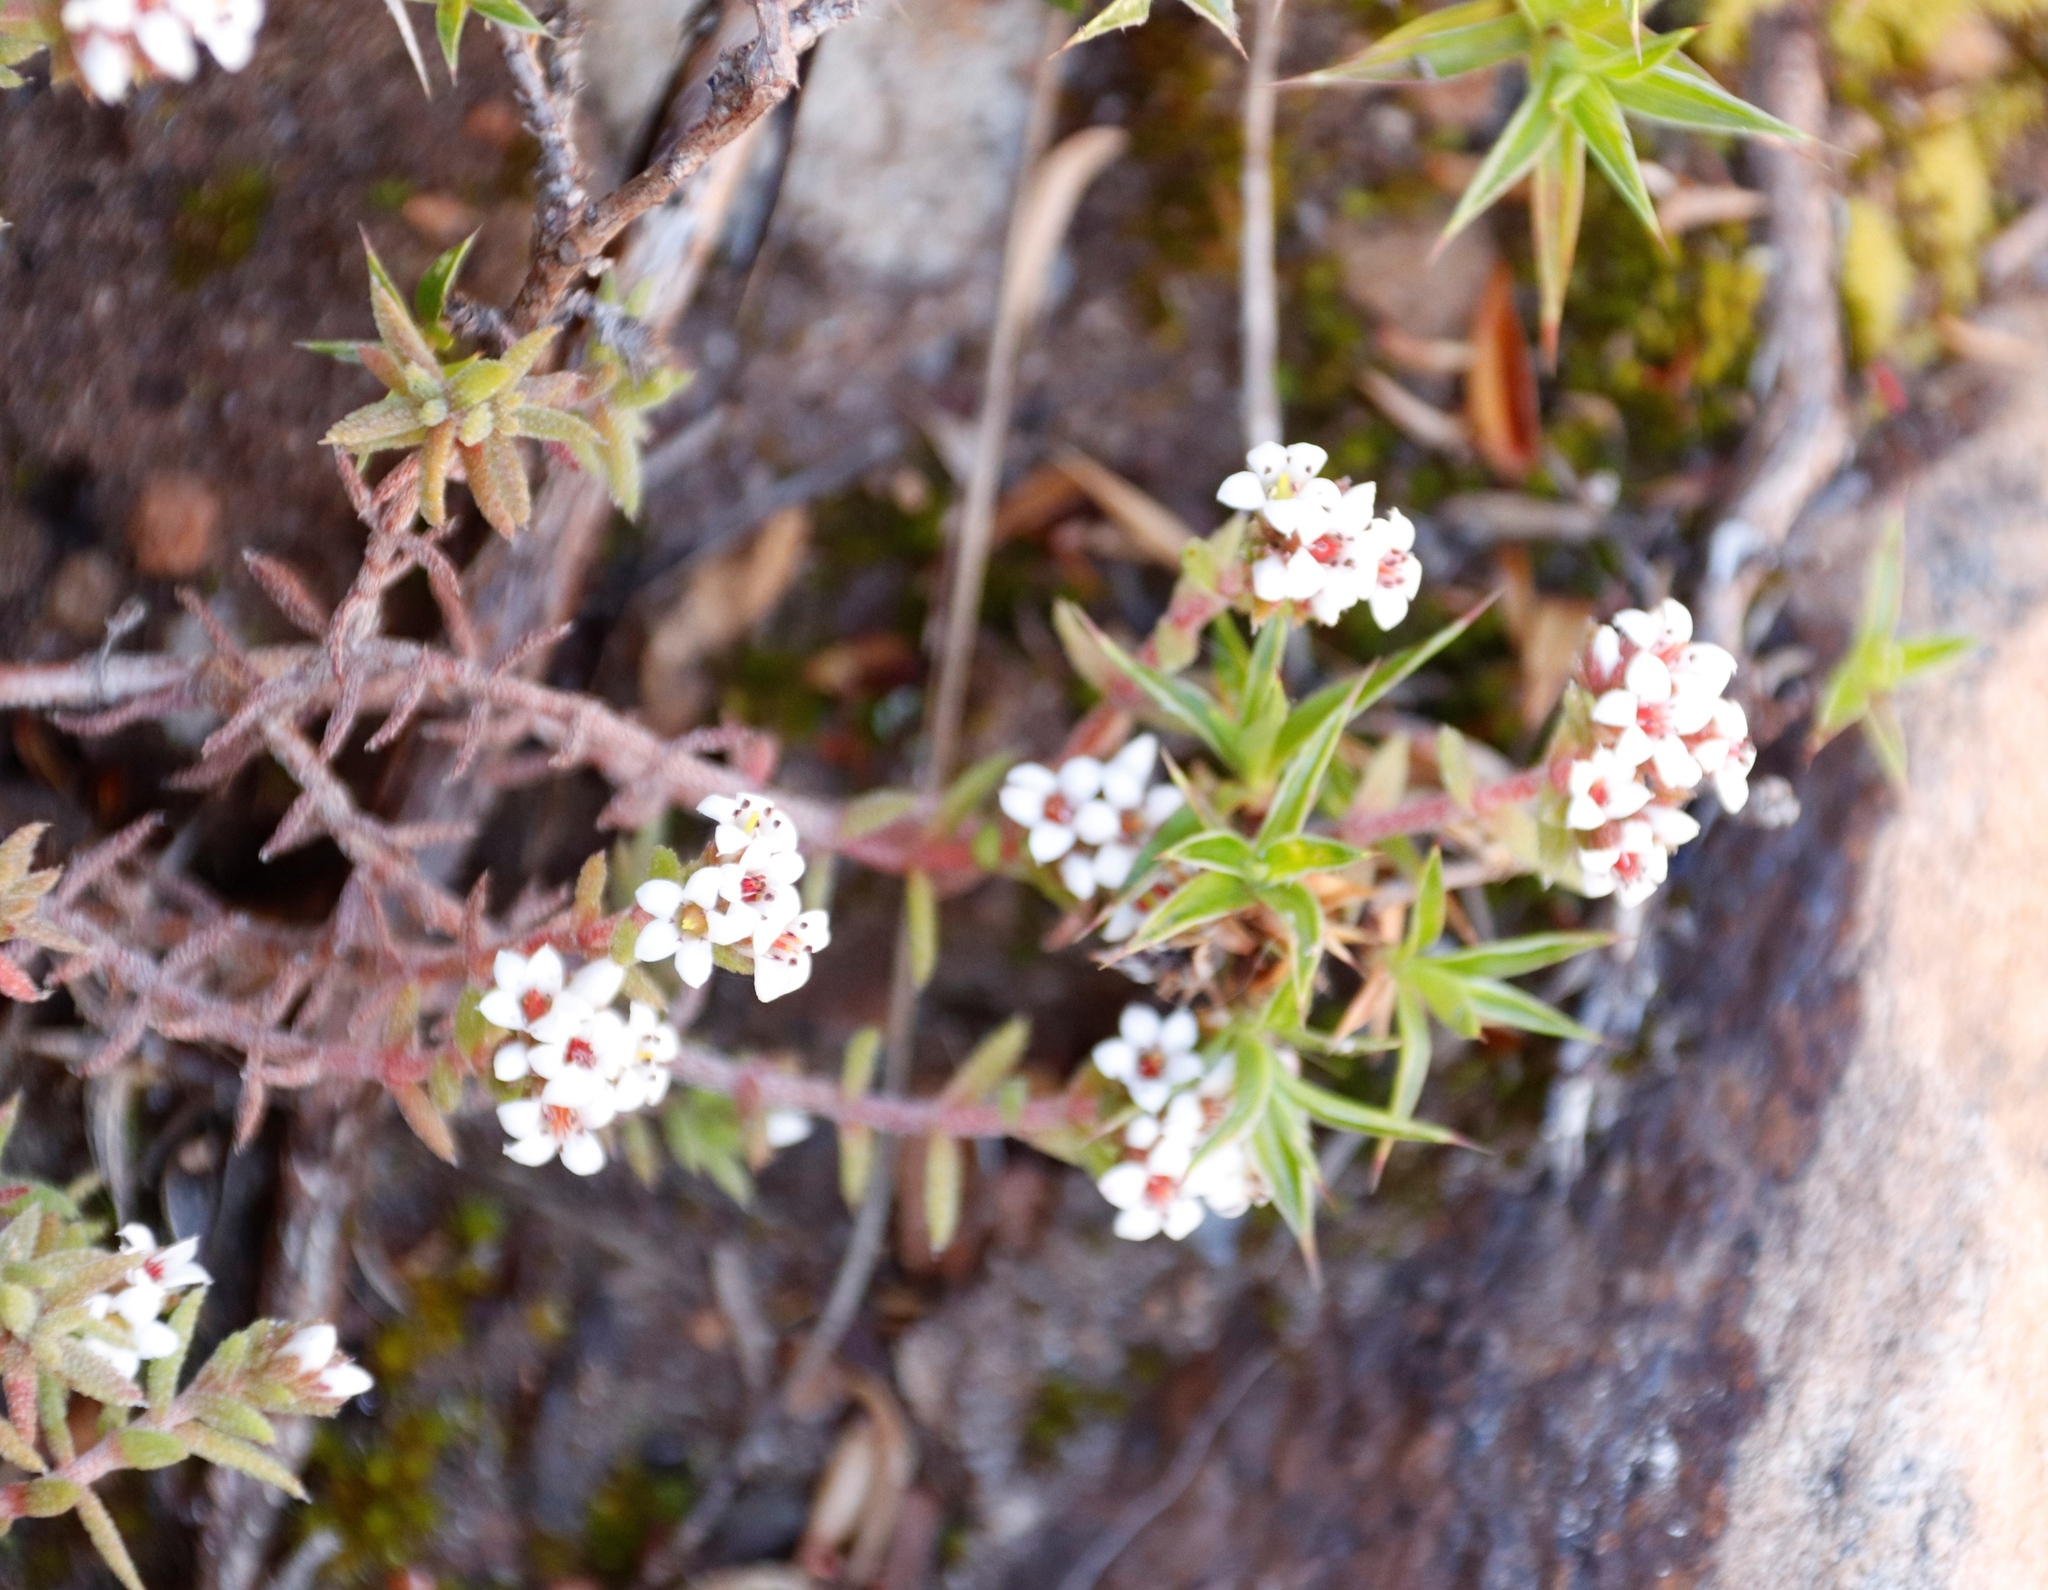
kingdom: Plantae
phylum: Tracheophyta
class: Magnoliopsida
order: Saxifragales
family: Crassulaceae
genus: Crassula
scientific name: Crassula pruinosa
